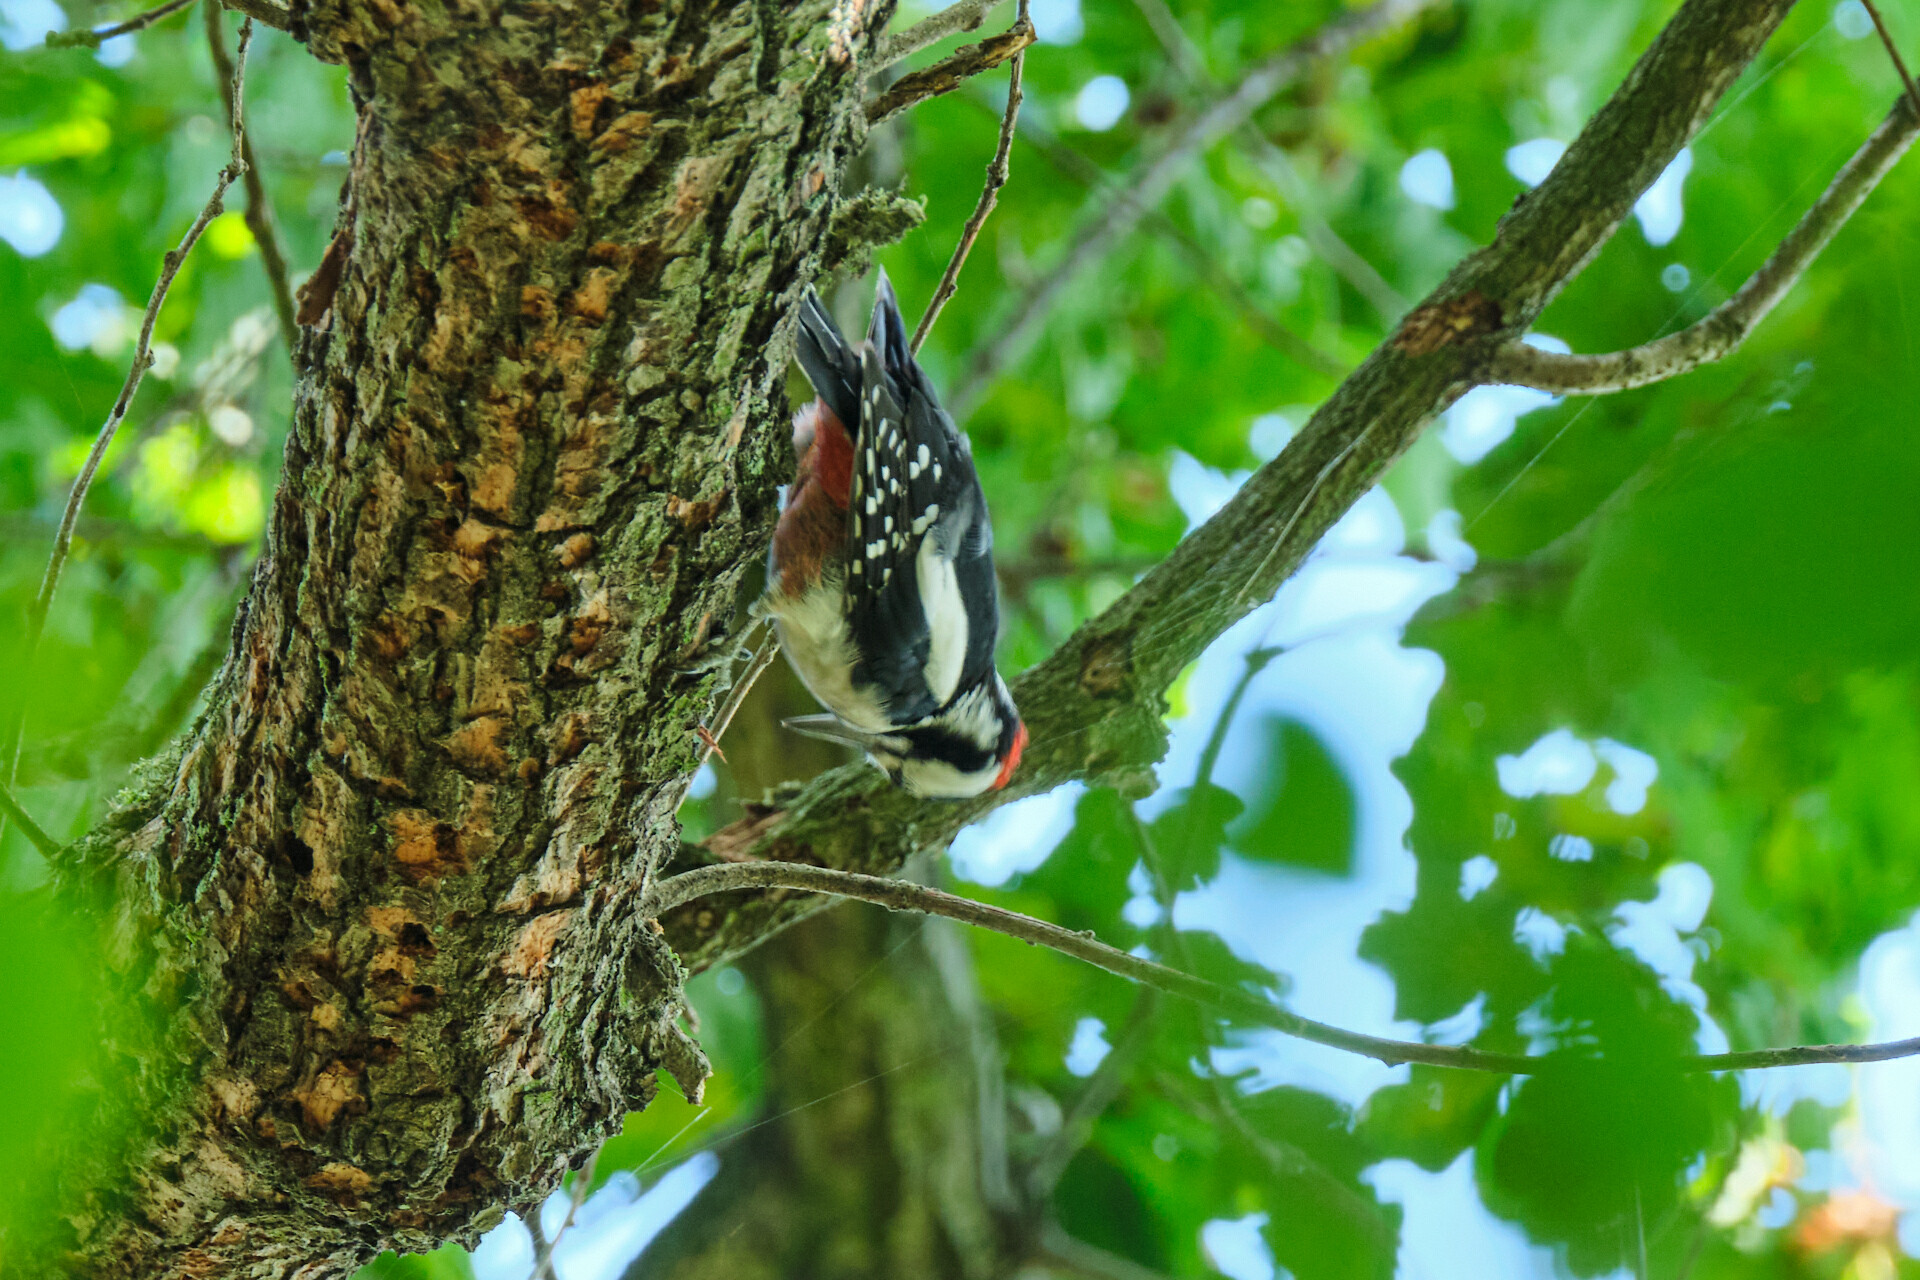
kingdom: Animalia
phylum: Chordata
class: Aves
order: Piciformes
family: Picidae
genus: Dendrocopos
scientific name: Dendrocopos major
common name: Great spotted woodpecker
